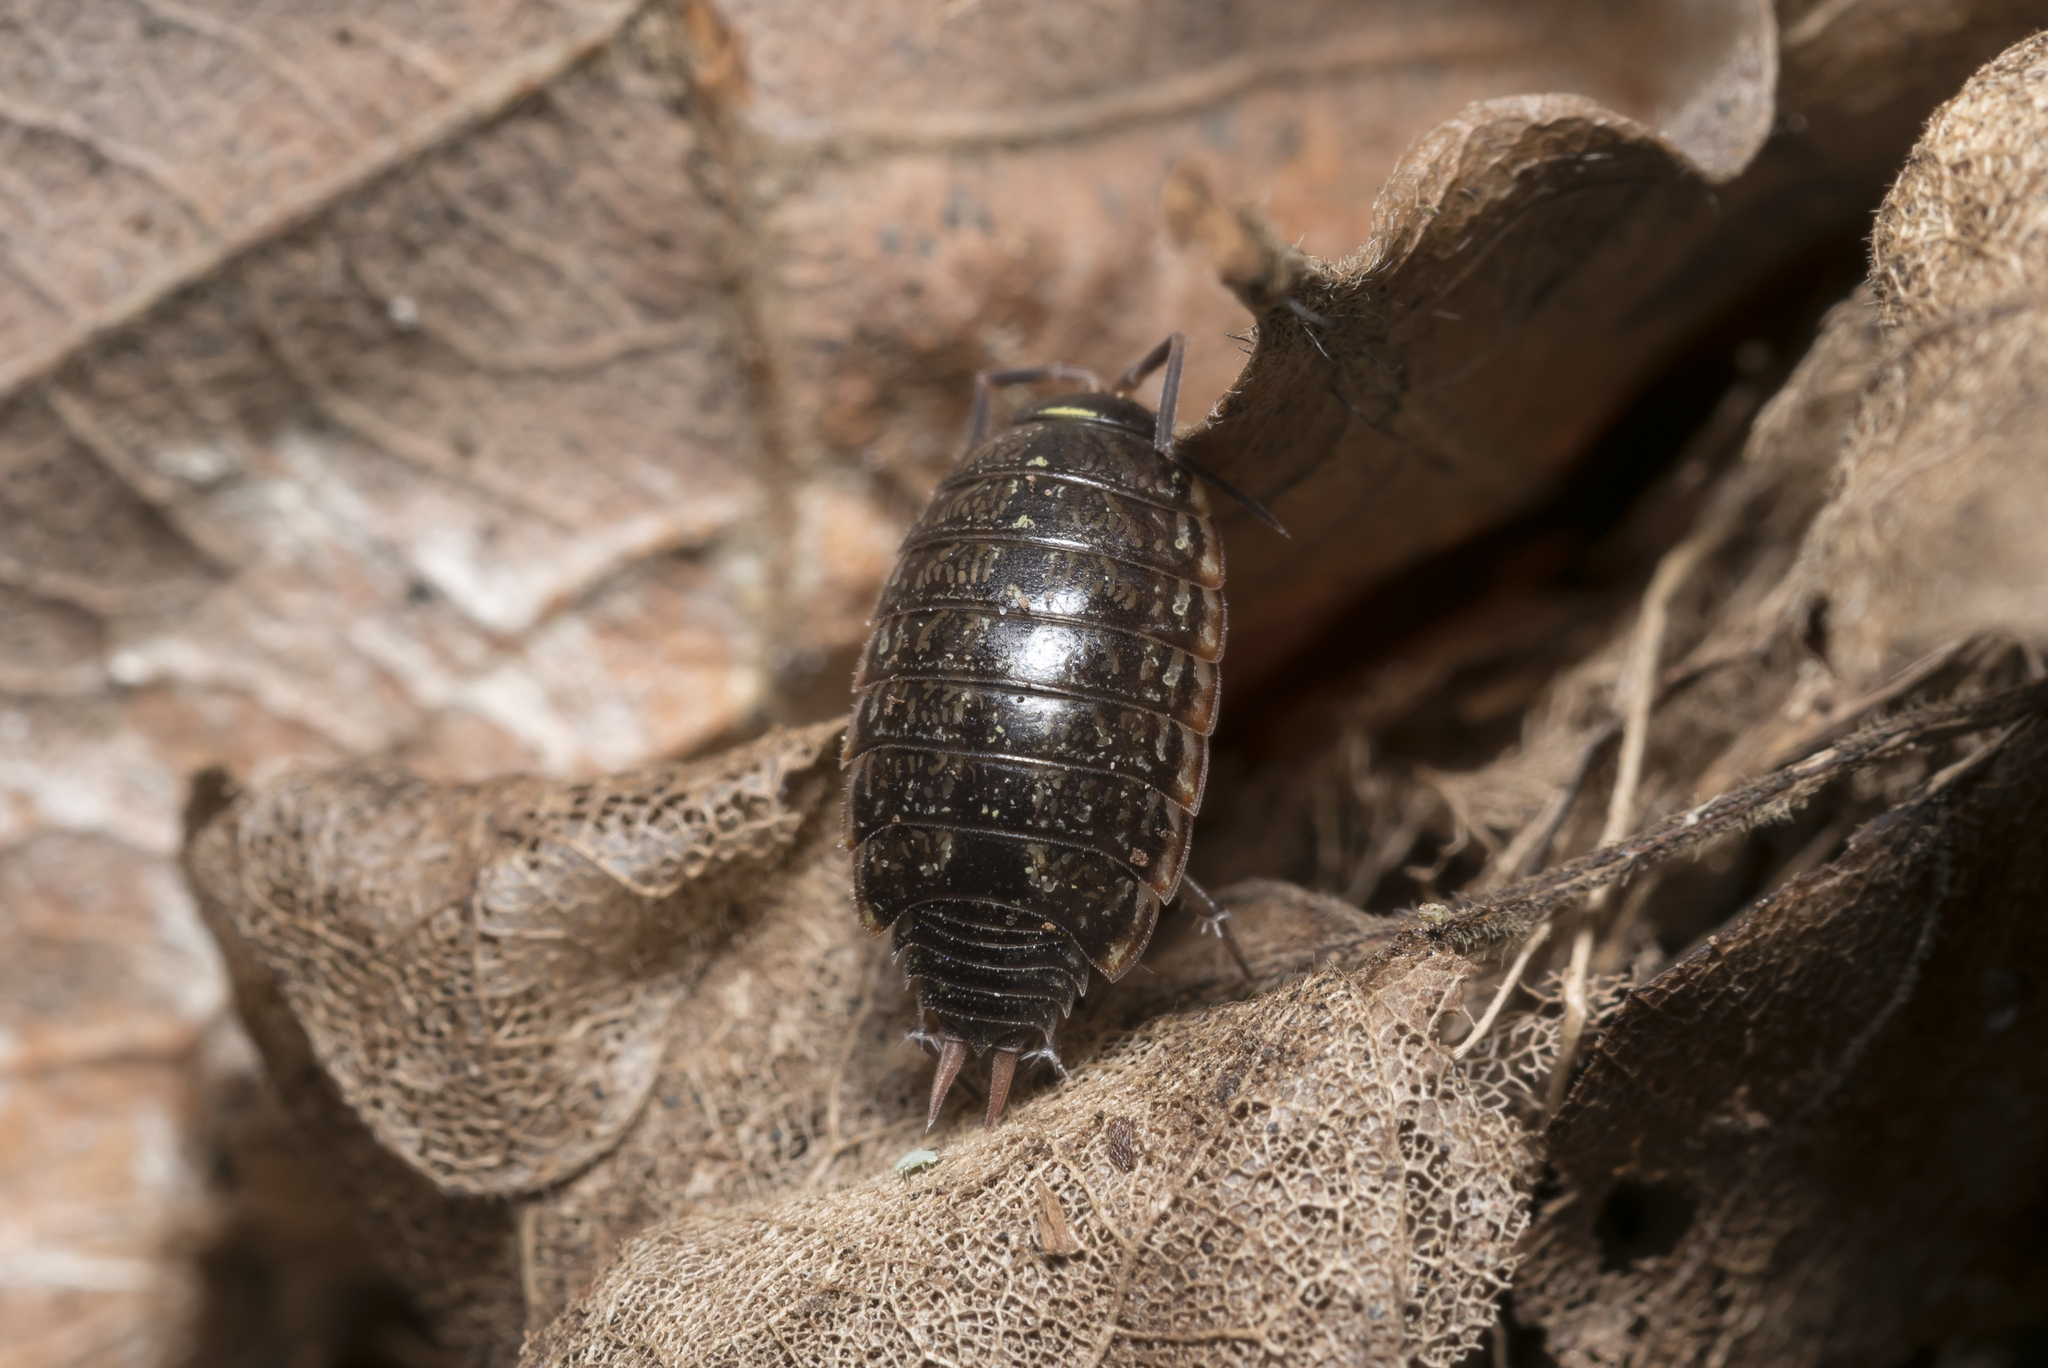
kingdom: Animalia
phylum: Arthropoda
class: Malacostraca
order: Isopoda
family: Philosciidae
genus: Philoscia
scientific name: Philoscia muscorum
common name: Common striped woodlouse
